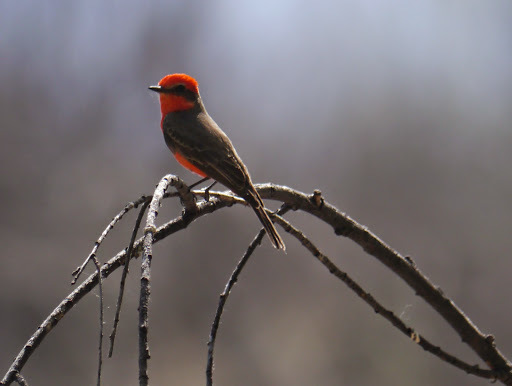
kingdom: Animalia
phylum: Chordata
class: Aves
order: Passeriformes
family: Tyrannidae
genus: Pyrocephalus
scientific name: Pyrocephalus rubinus
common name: Vermilion flycatcher
